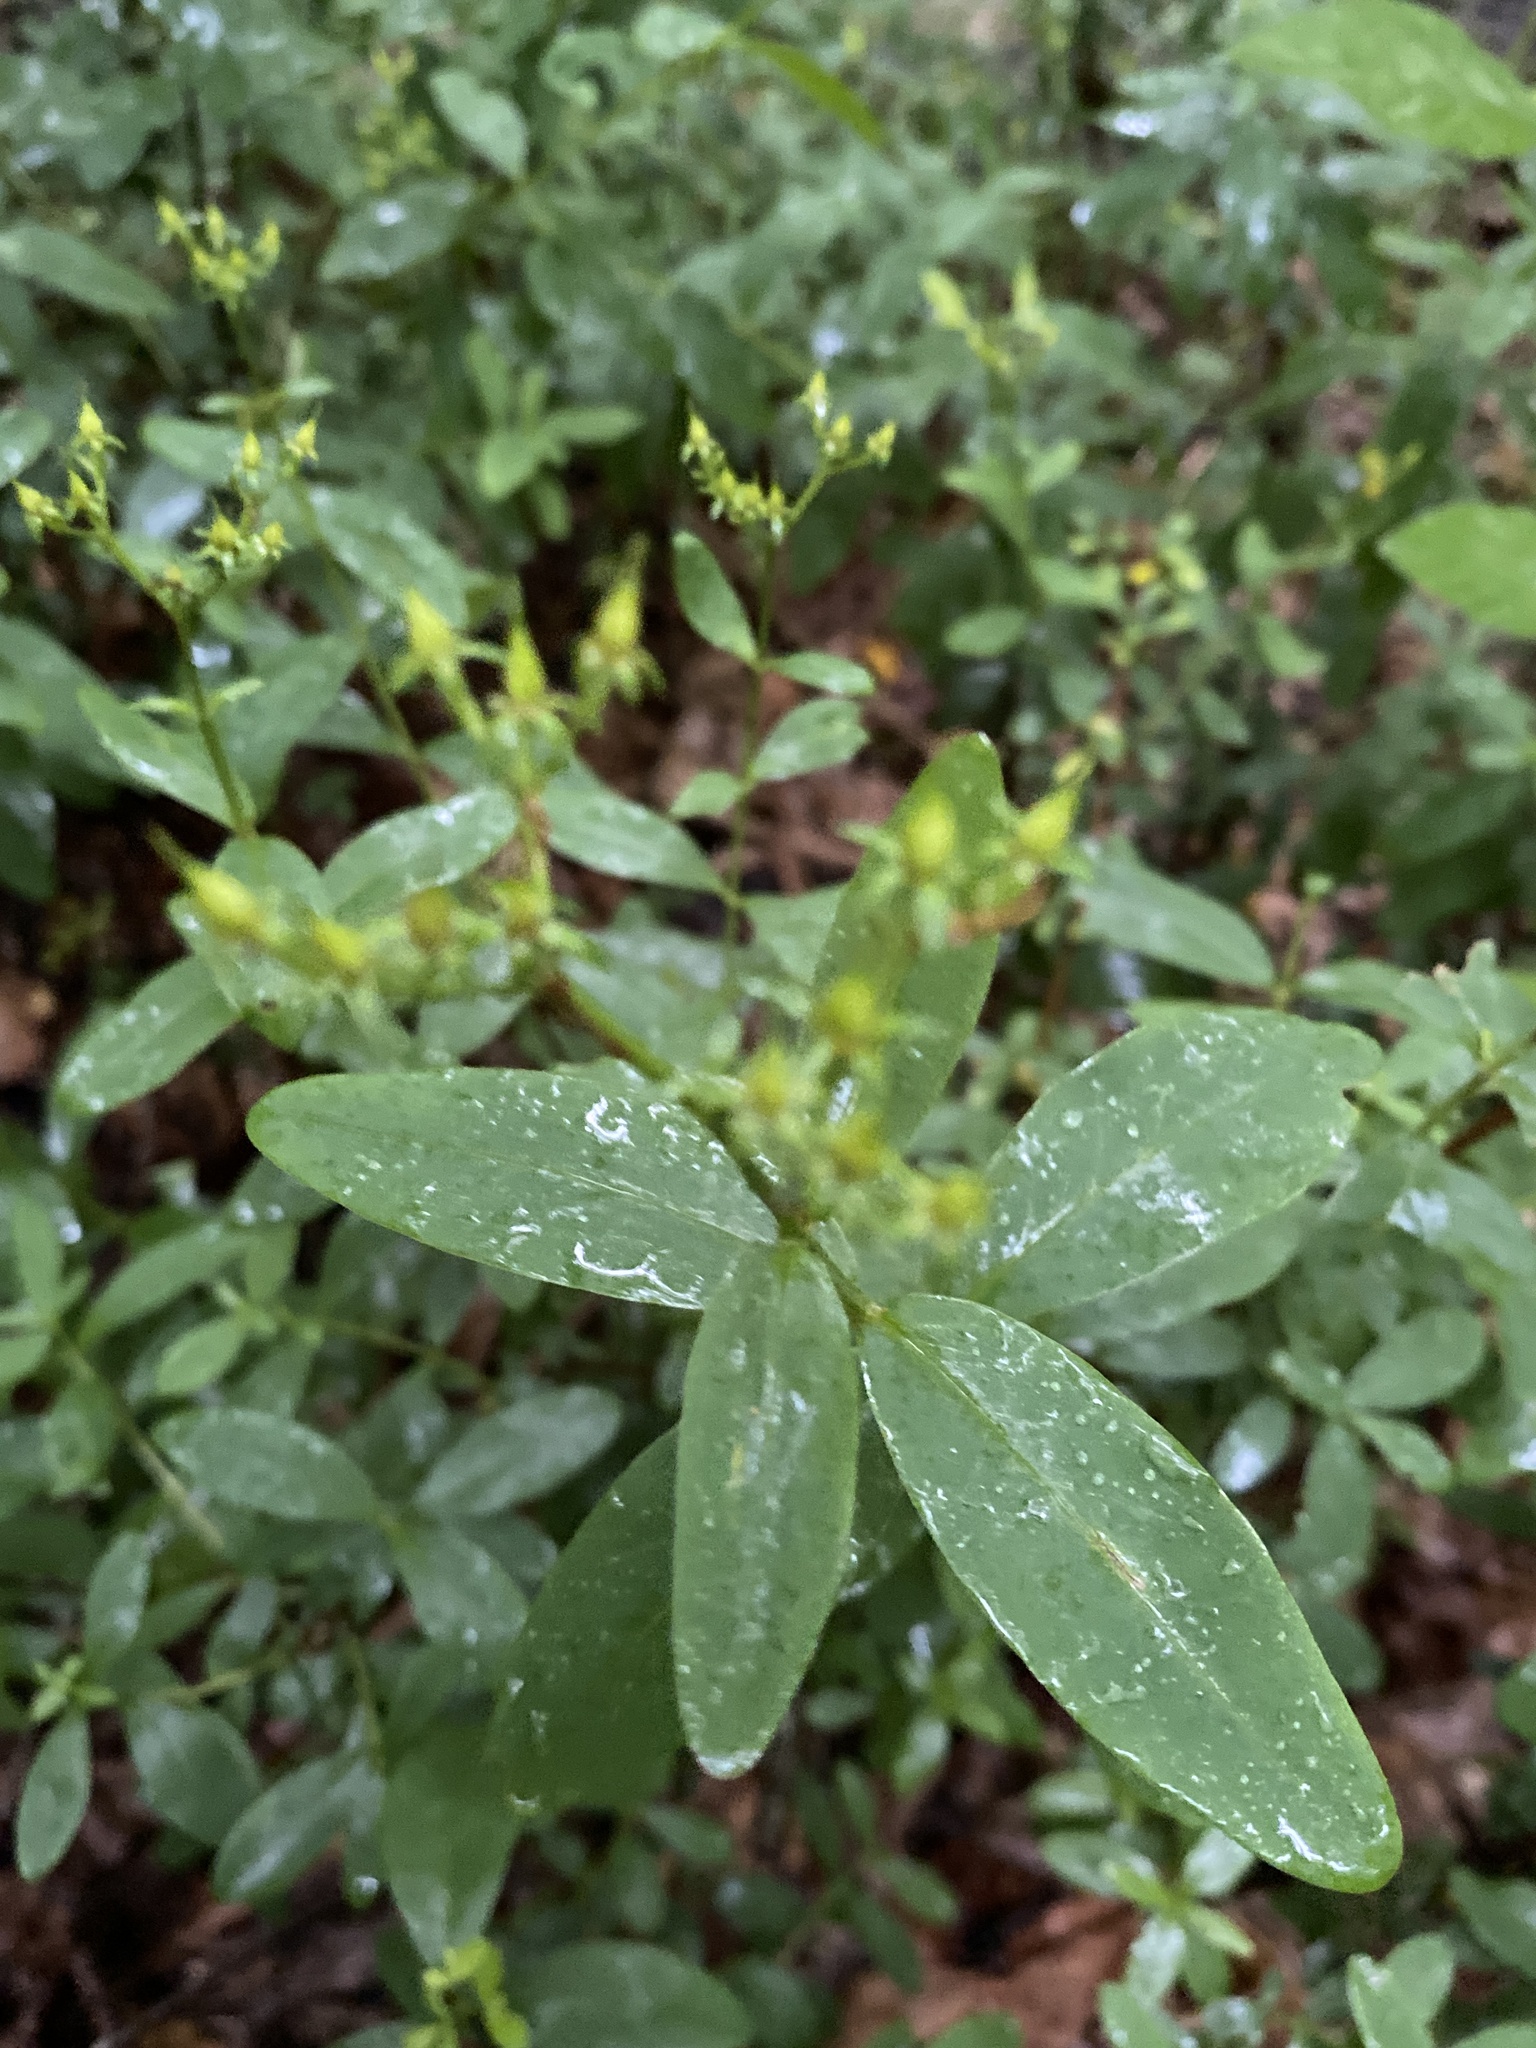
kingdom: Plantae
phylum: Tracheophyta
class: Magnoliopsida
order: Malpighiales
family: Hypericaceae
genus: Hypericum
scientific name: Hypericum nudiflorum
